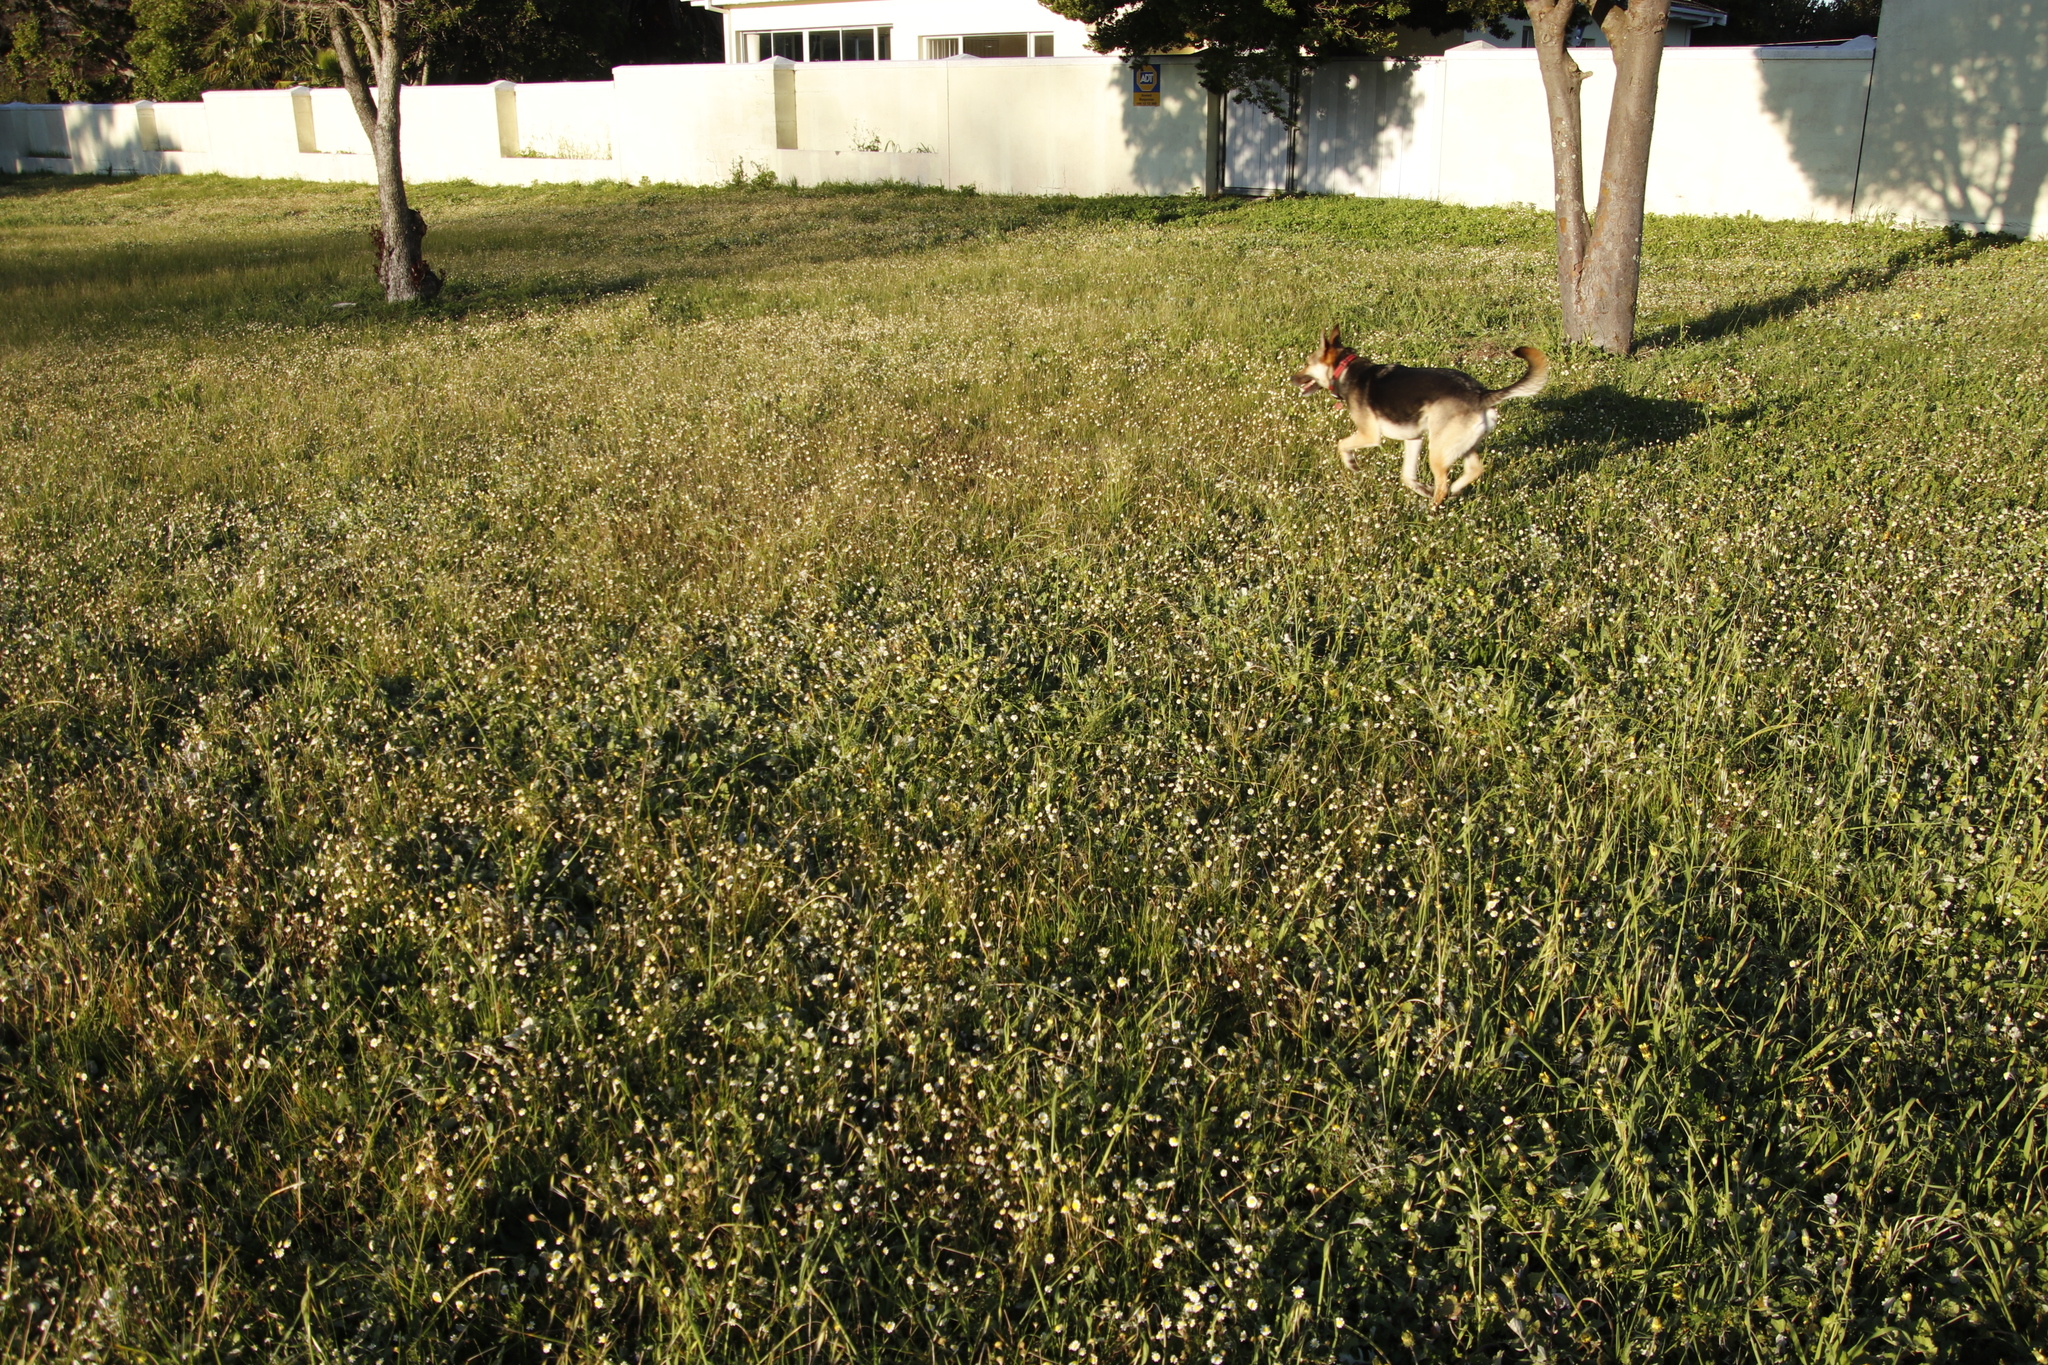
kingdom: Plantae
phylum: Tracheophyta
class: Magnoliopsida
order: Asterales
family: Asteraceae
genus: Cotula
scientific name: Cotula turbinata
